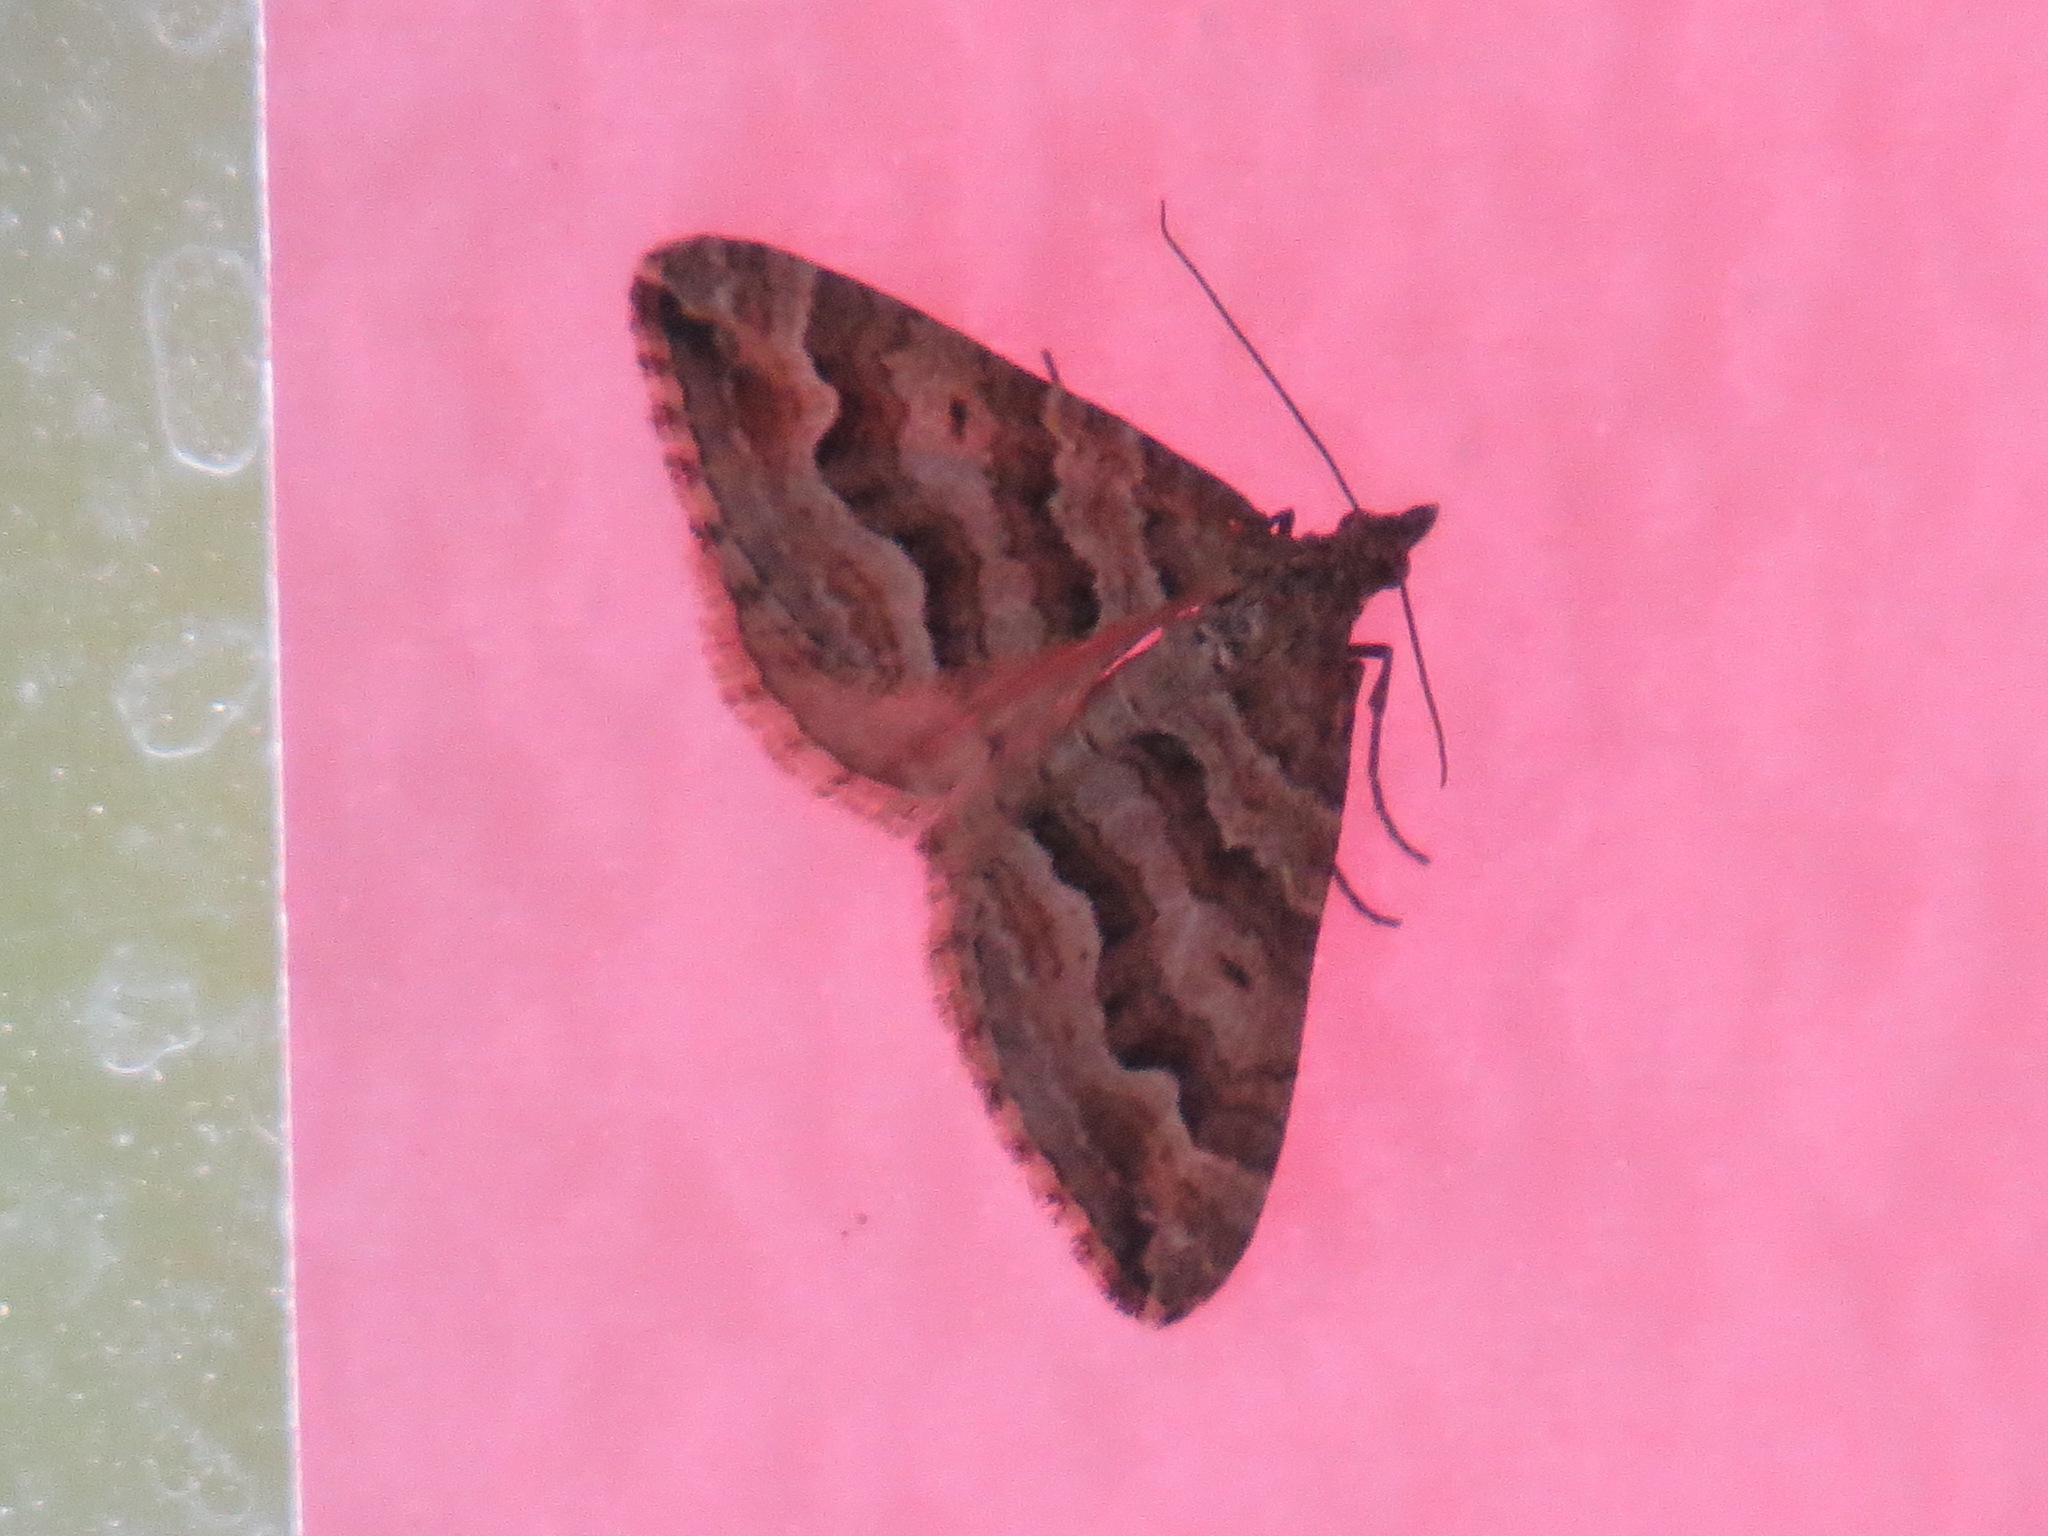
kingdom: Animalia
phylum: Arthropoda
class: Insecta
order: Lepidoptera
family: Geometridae
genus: Perizoma
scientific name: Perizoma epictata
